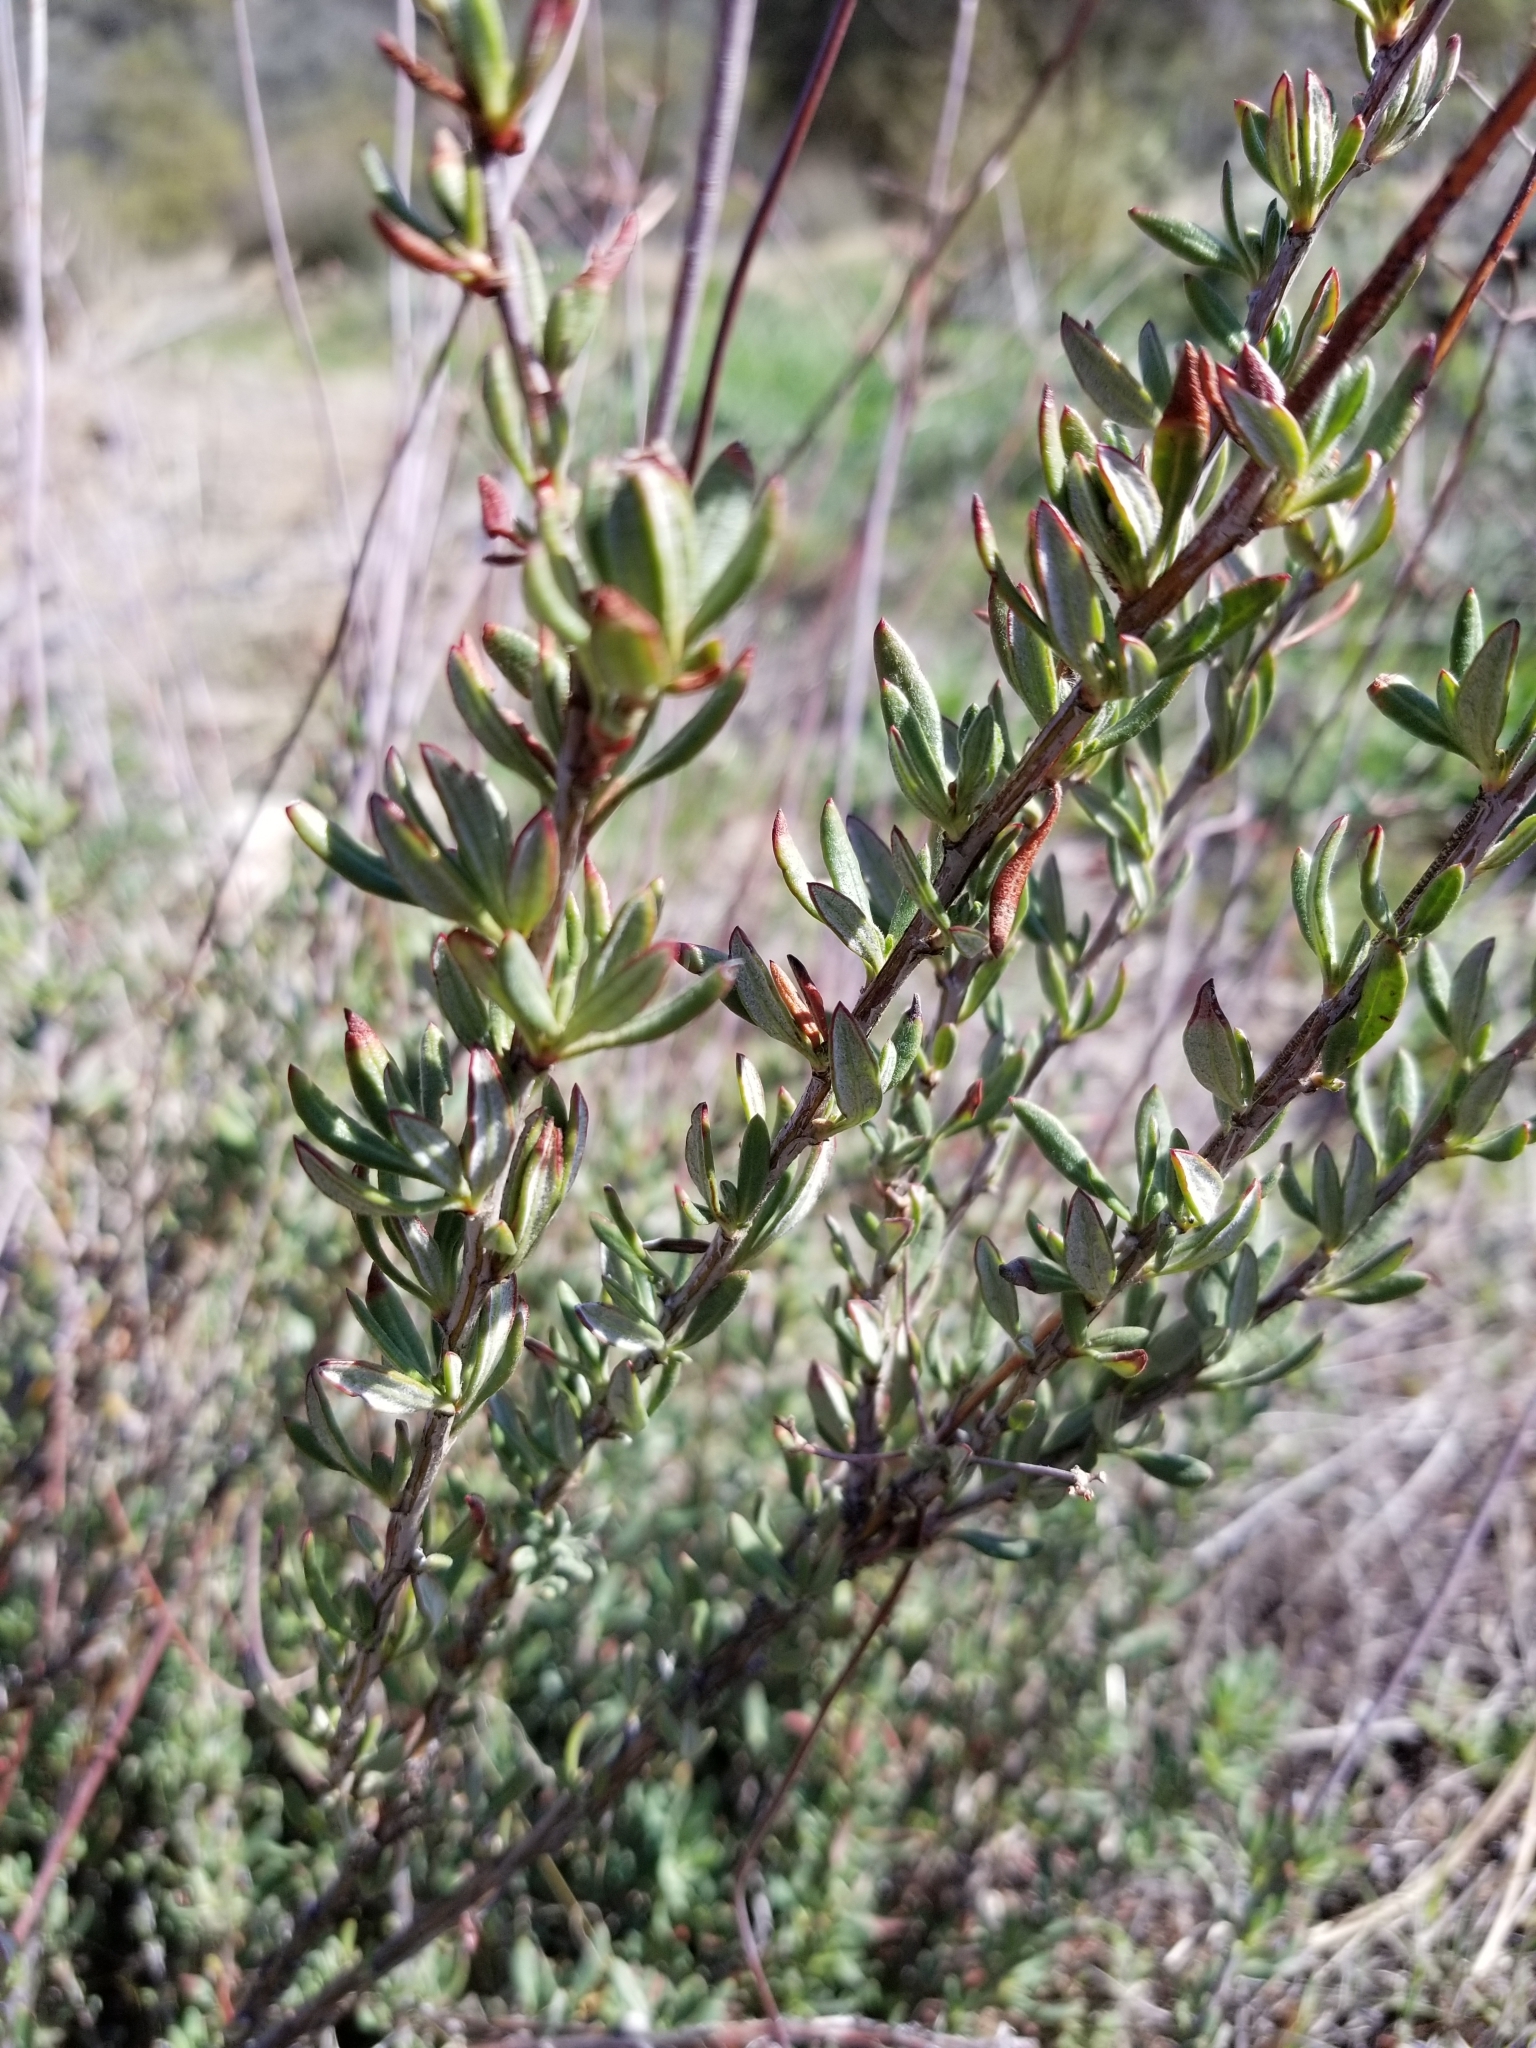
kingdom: Plantae
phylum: Tracheophyta
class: Magnoliopsida
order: Caryophyllales
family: Polygonaceae
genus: Eriogonum
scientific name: Eriogonum fasciculatum
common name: California wild buckwheat
